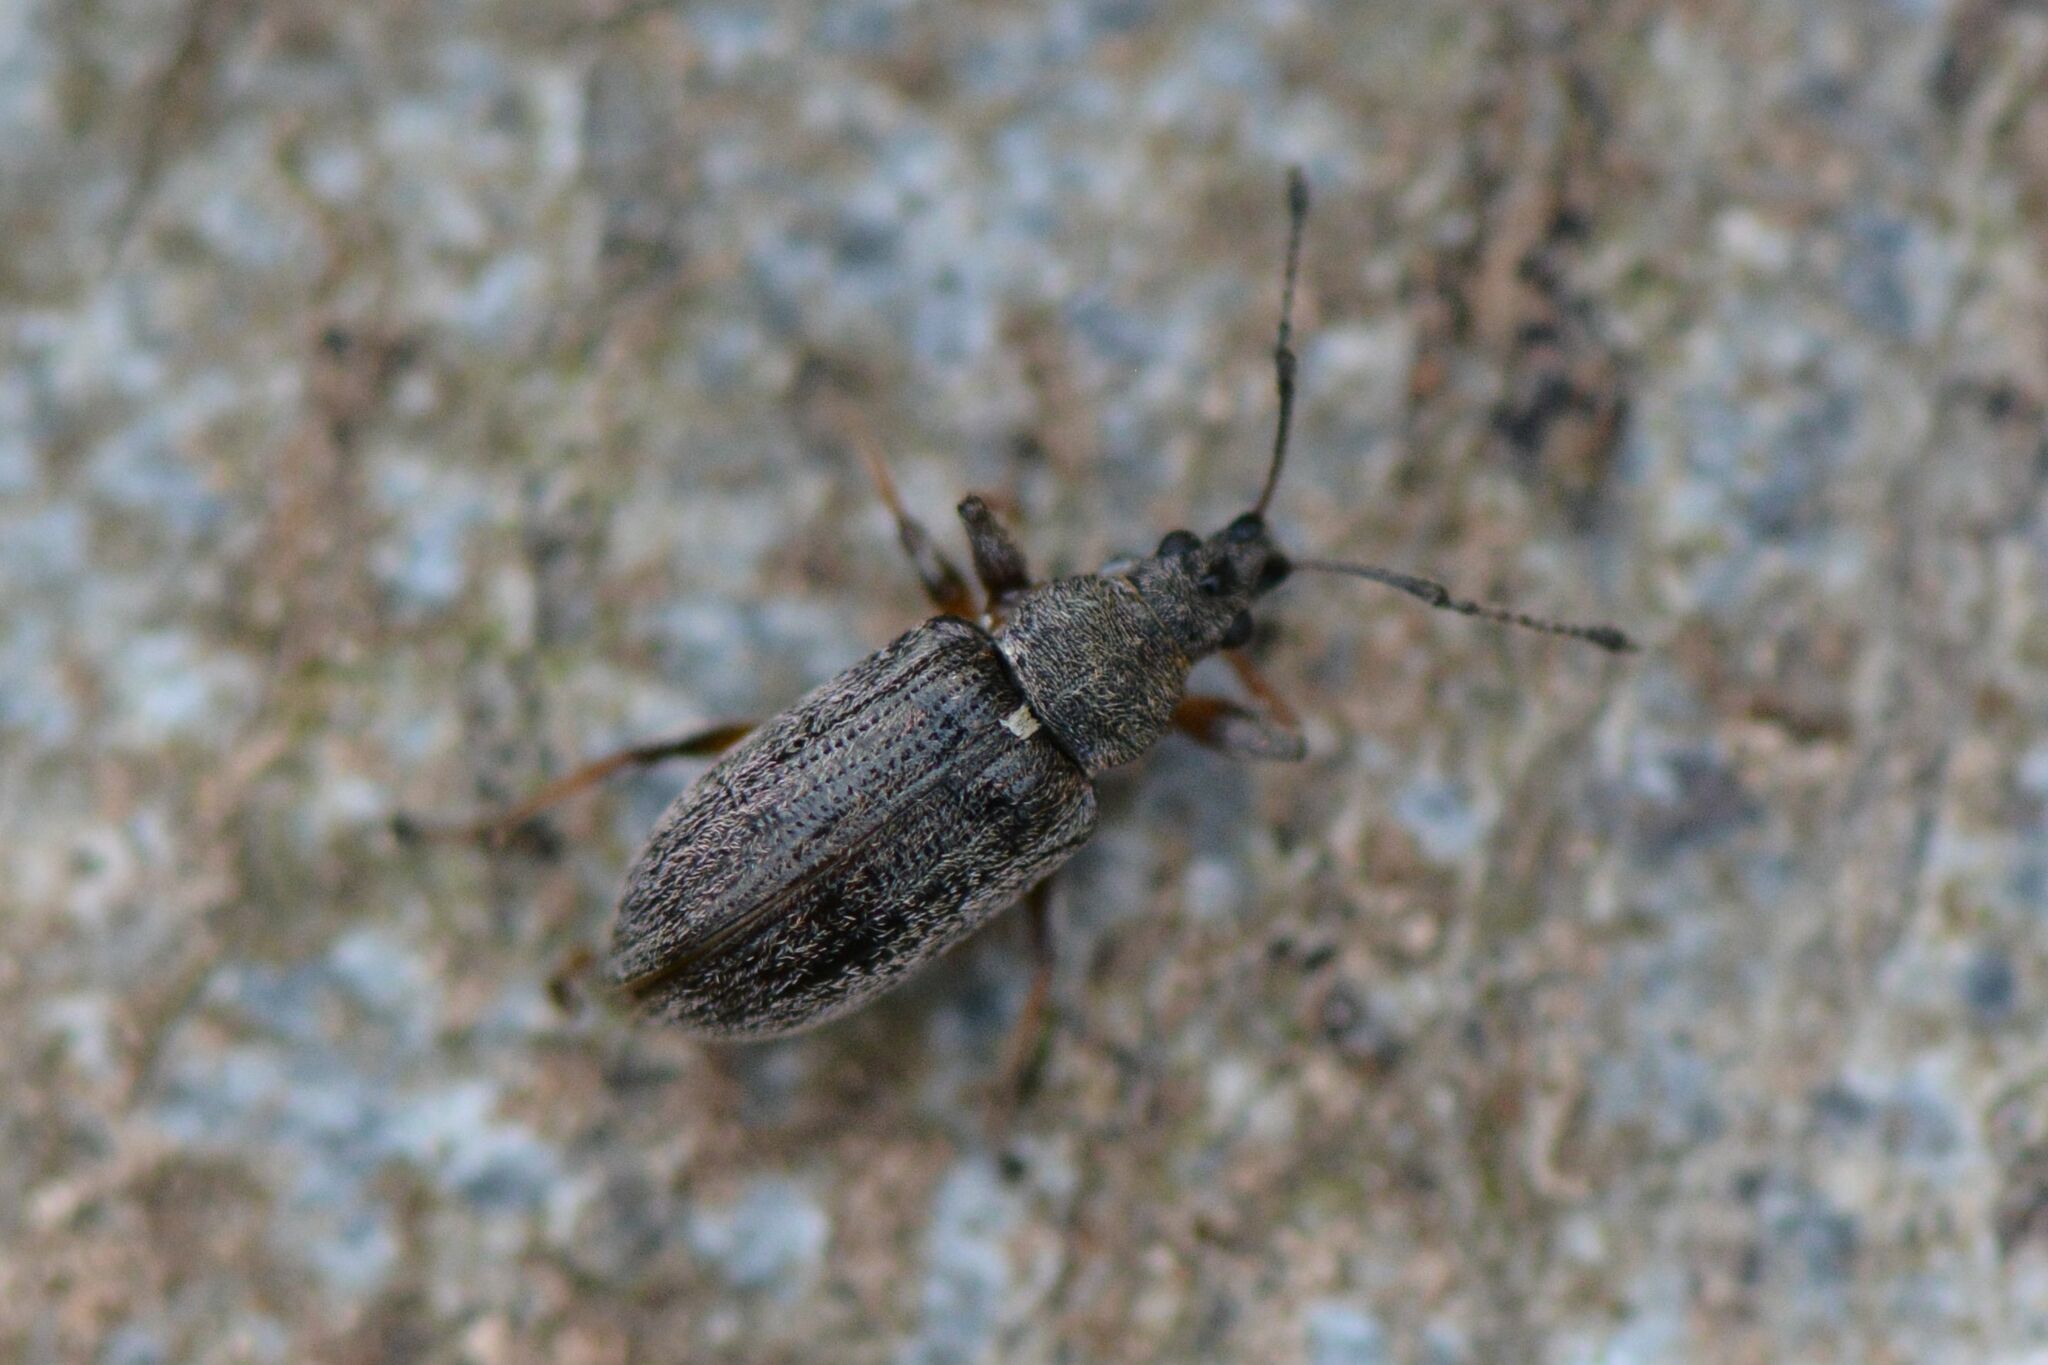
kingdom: Animalia
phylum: Arthropoda
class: Insecta
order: Coleoptera
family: Curculionidae
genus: Phyllobius
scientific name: Phyllobius pyri
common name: Common leaf weevil
